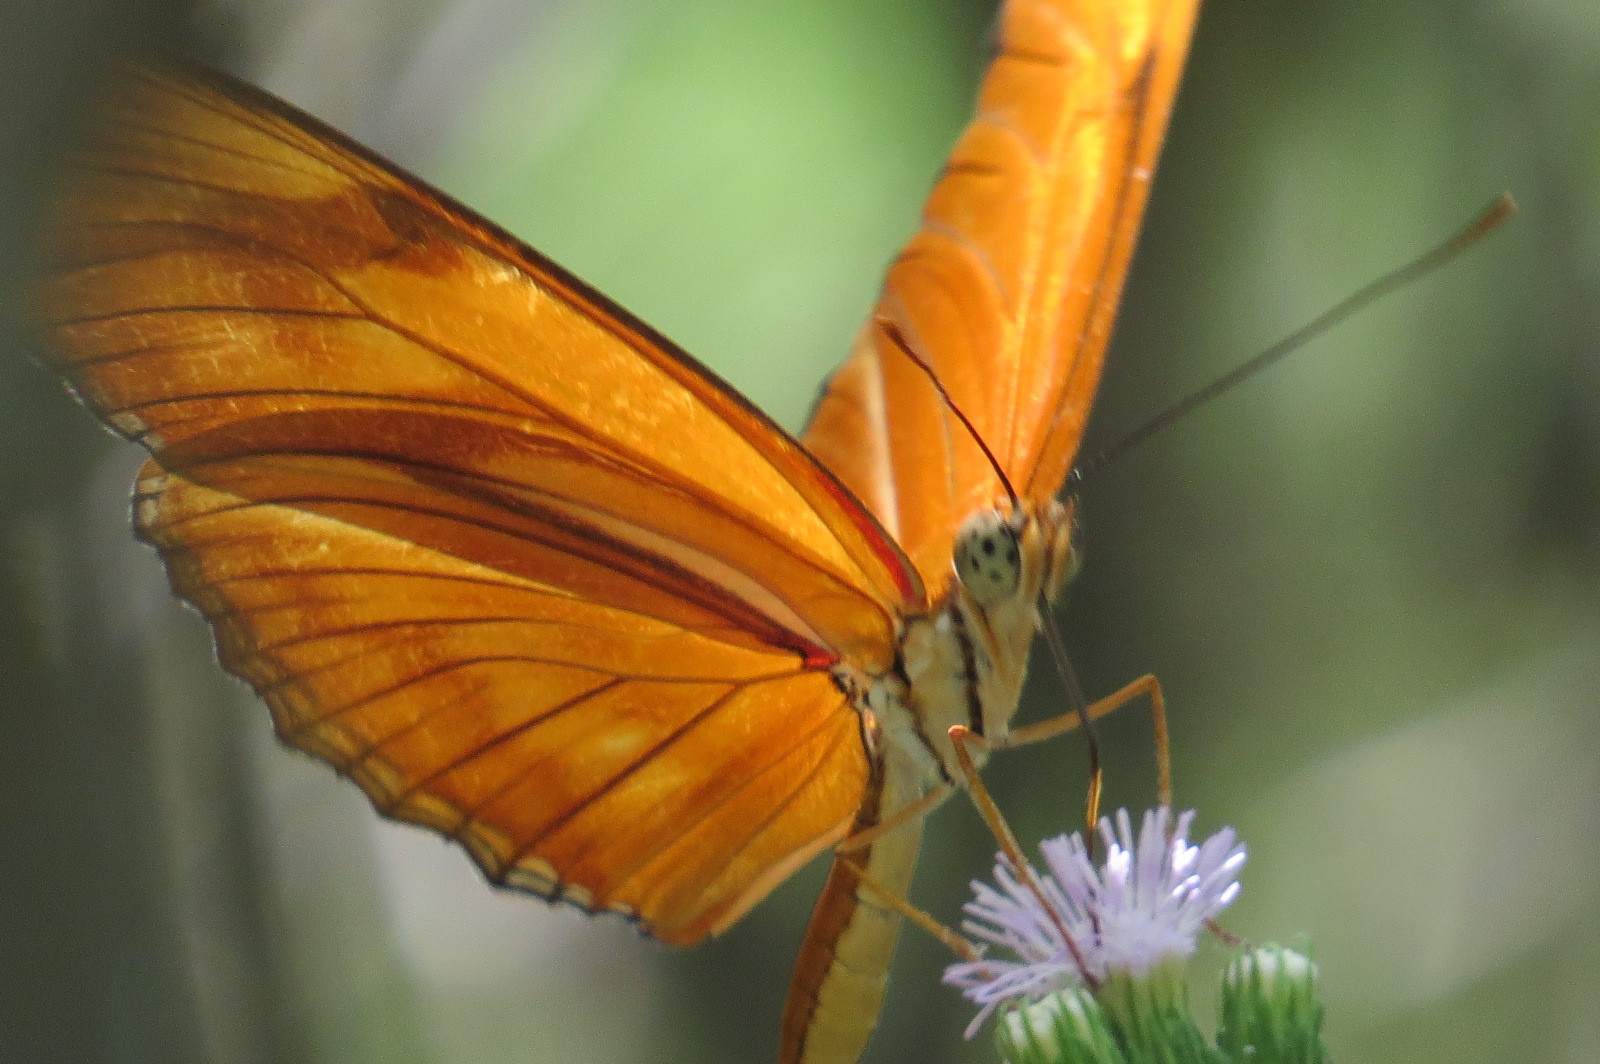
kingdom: Animalia
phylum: Arthropoda
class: Insecta
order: Lepidoptera
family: Nymphalidae
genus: Dryas
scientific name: Dryas iulia
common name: Flambeau
